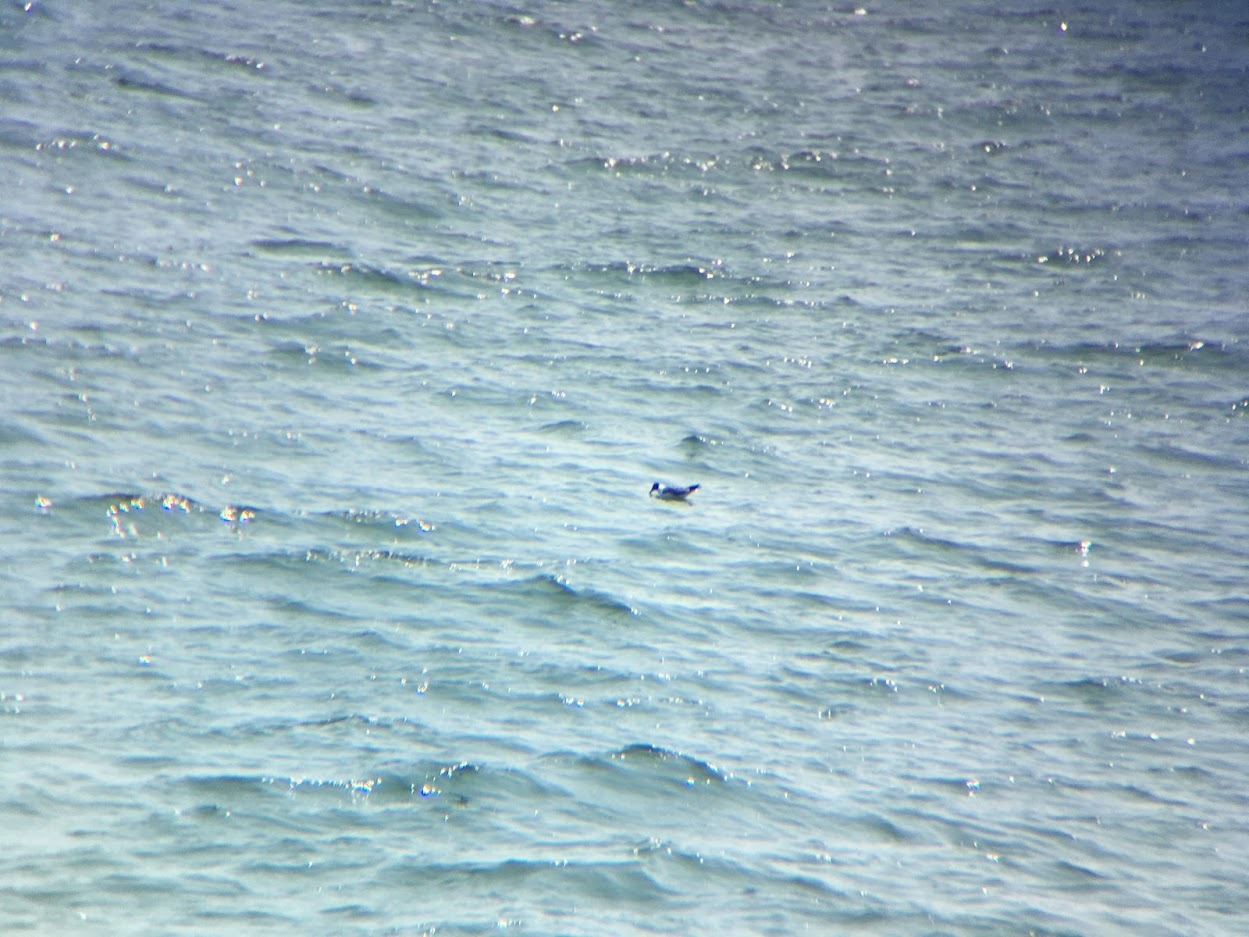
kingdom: Animalia
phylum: Chordata
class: Aves
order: Charadriiformes
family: Laridae
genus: Leucophaeus
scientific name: Leucophaeus atricilla
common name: Laughing gull
